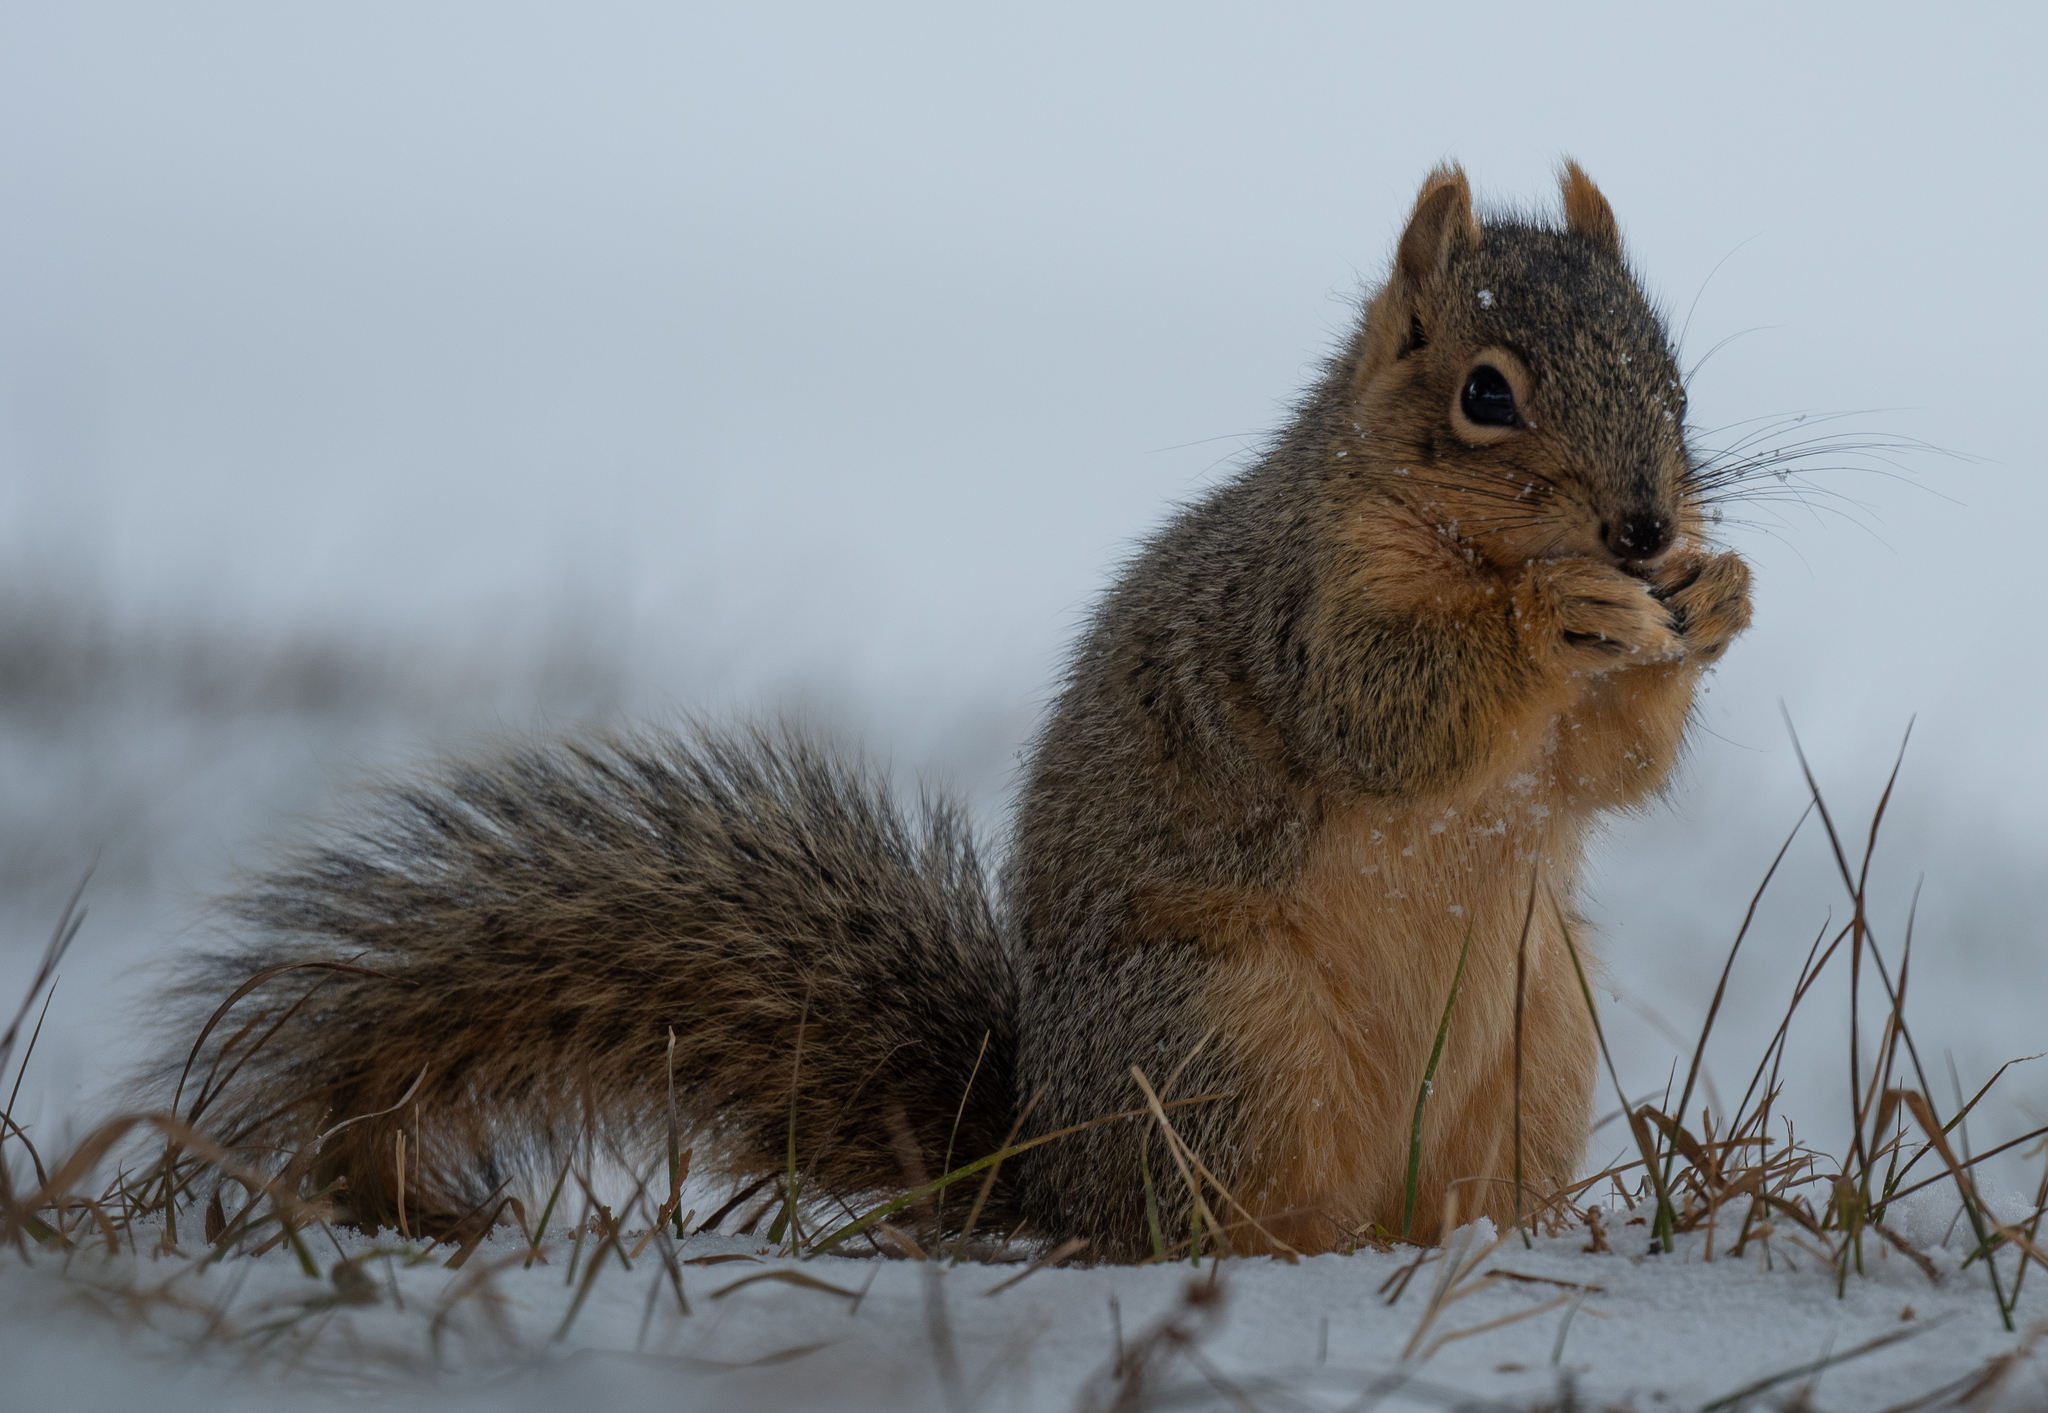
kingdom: Animalia
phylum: Chordata
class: Mammalia
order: Rodentia
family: Sciuridae
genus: Sciurus
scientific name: Sciurus niger
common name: Fox squirrel
